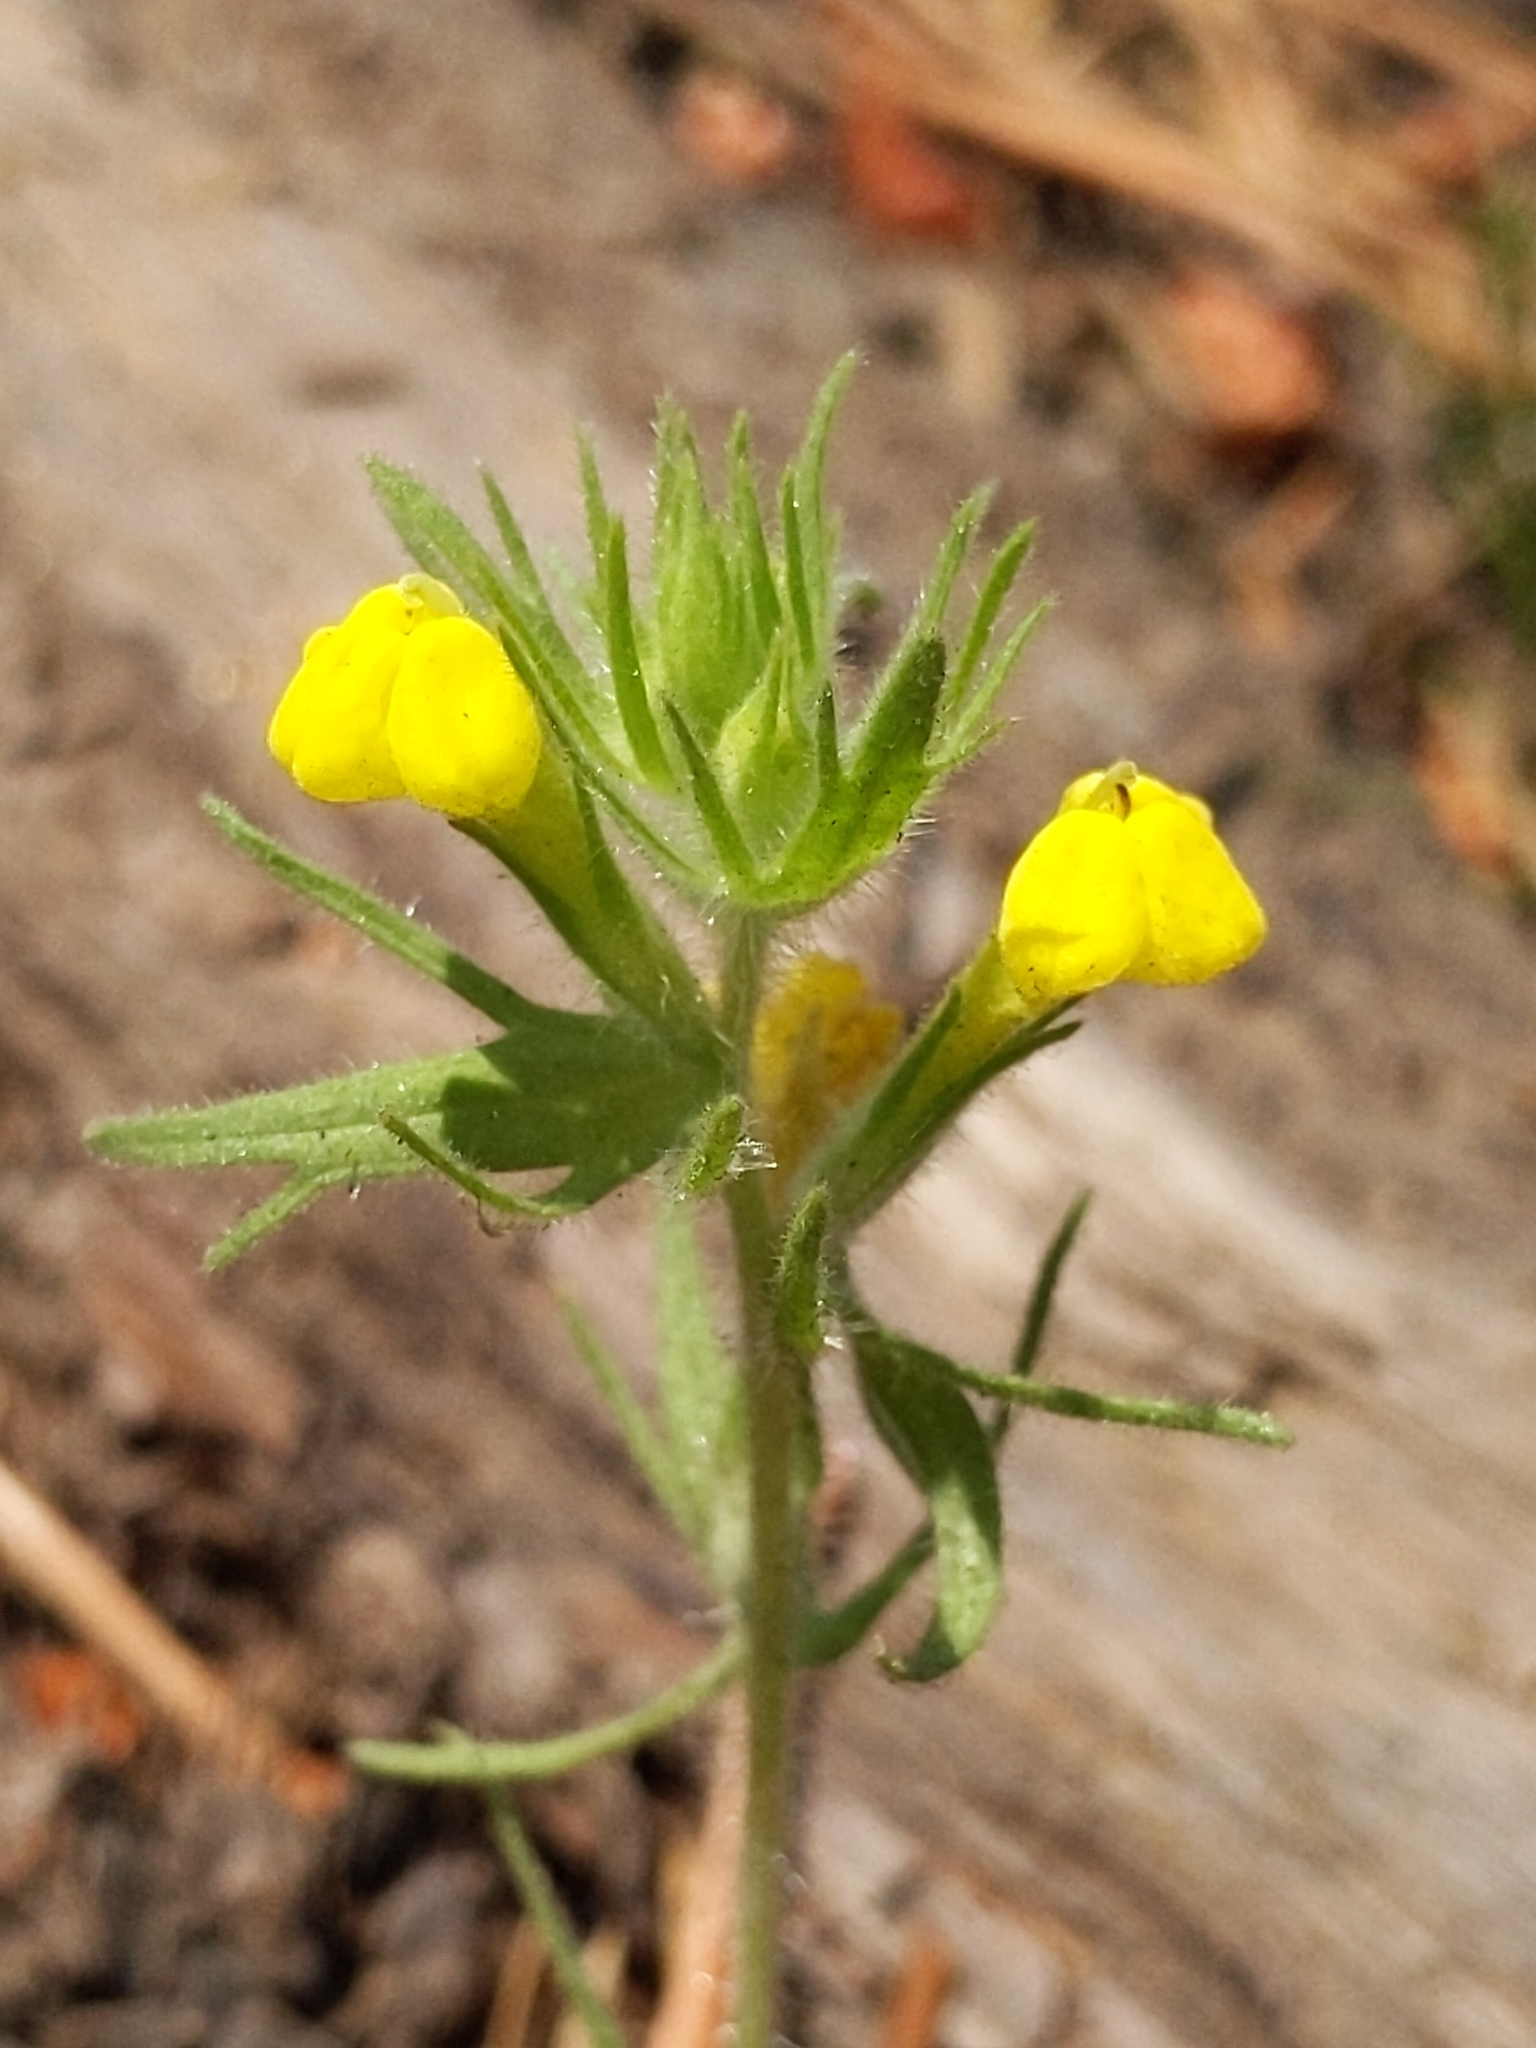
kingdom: Plantae
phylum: Tracheophyta
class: Magnoliopsida
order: Lamiales
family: Orobanchaceae
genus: Castilleja
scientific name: Castilleja lacera
